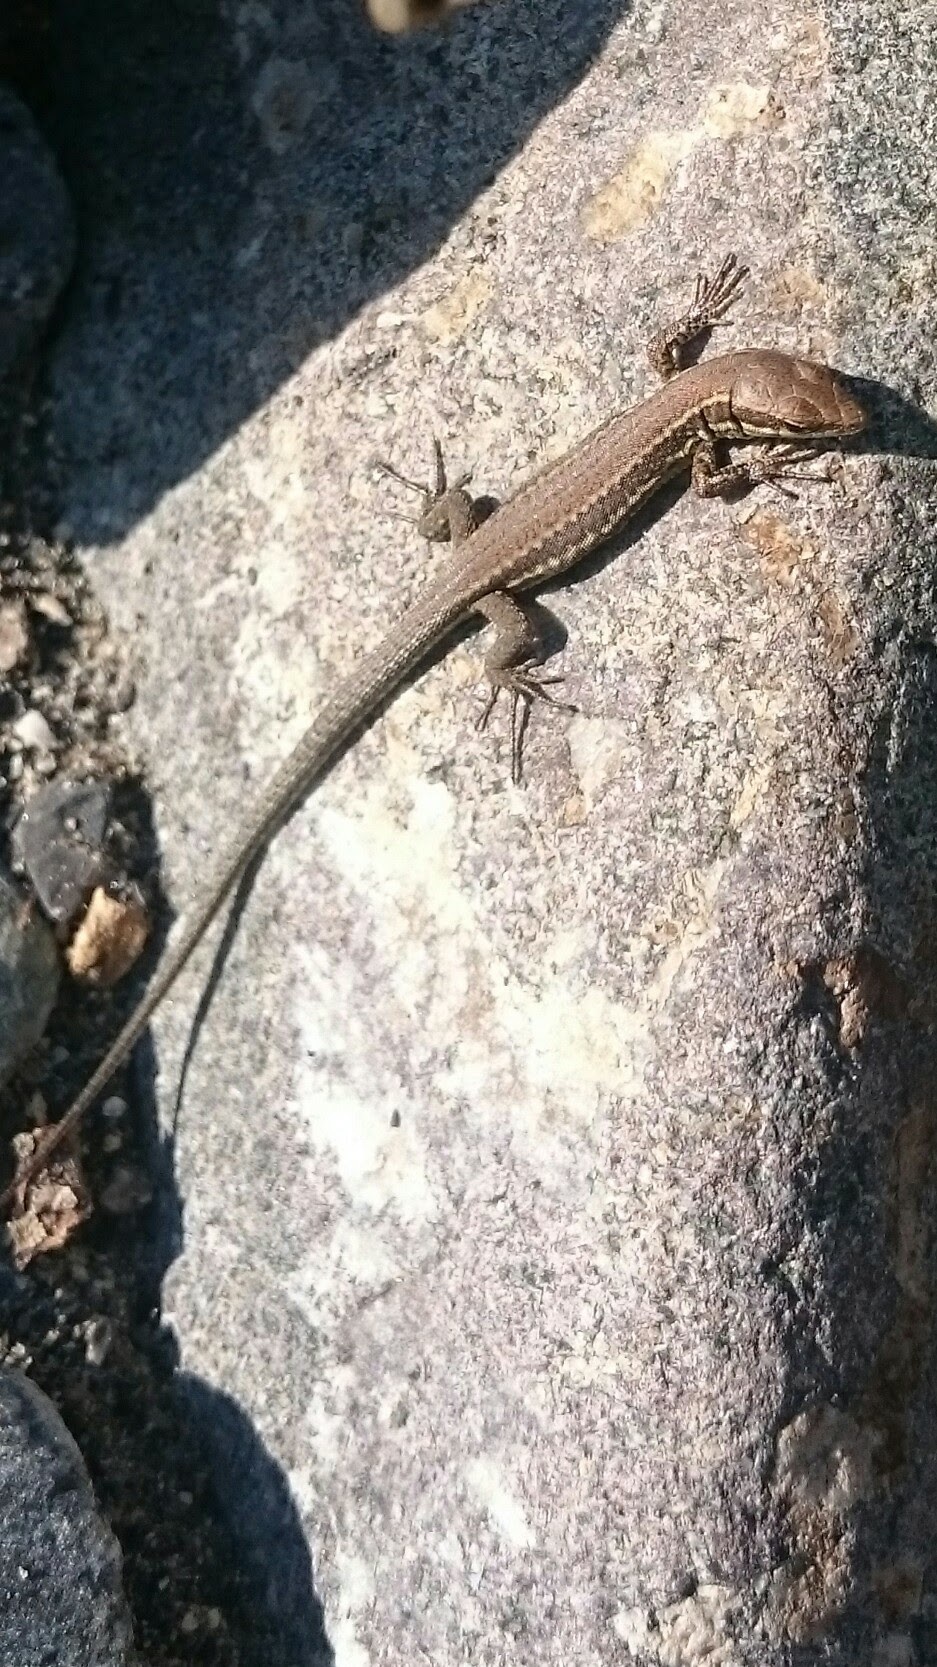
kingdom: Animalia
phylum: Chordata
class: Squamata
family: Lacertidae
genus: Podarcis
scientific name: Podarcis muralis
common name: Common wall lizard
